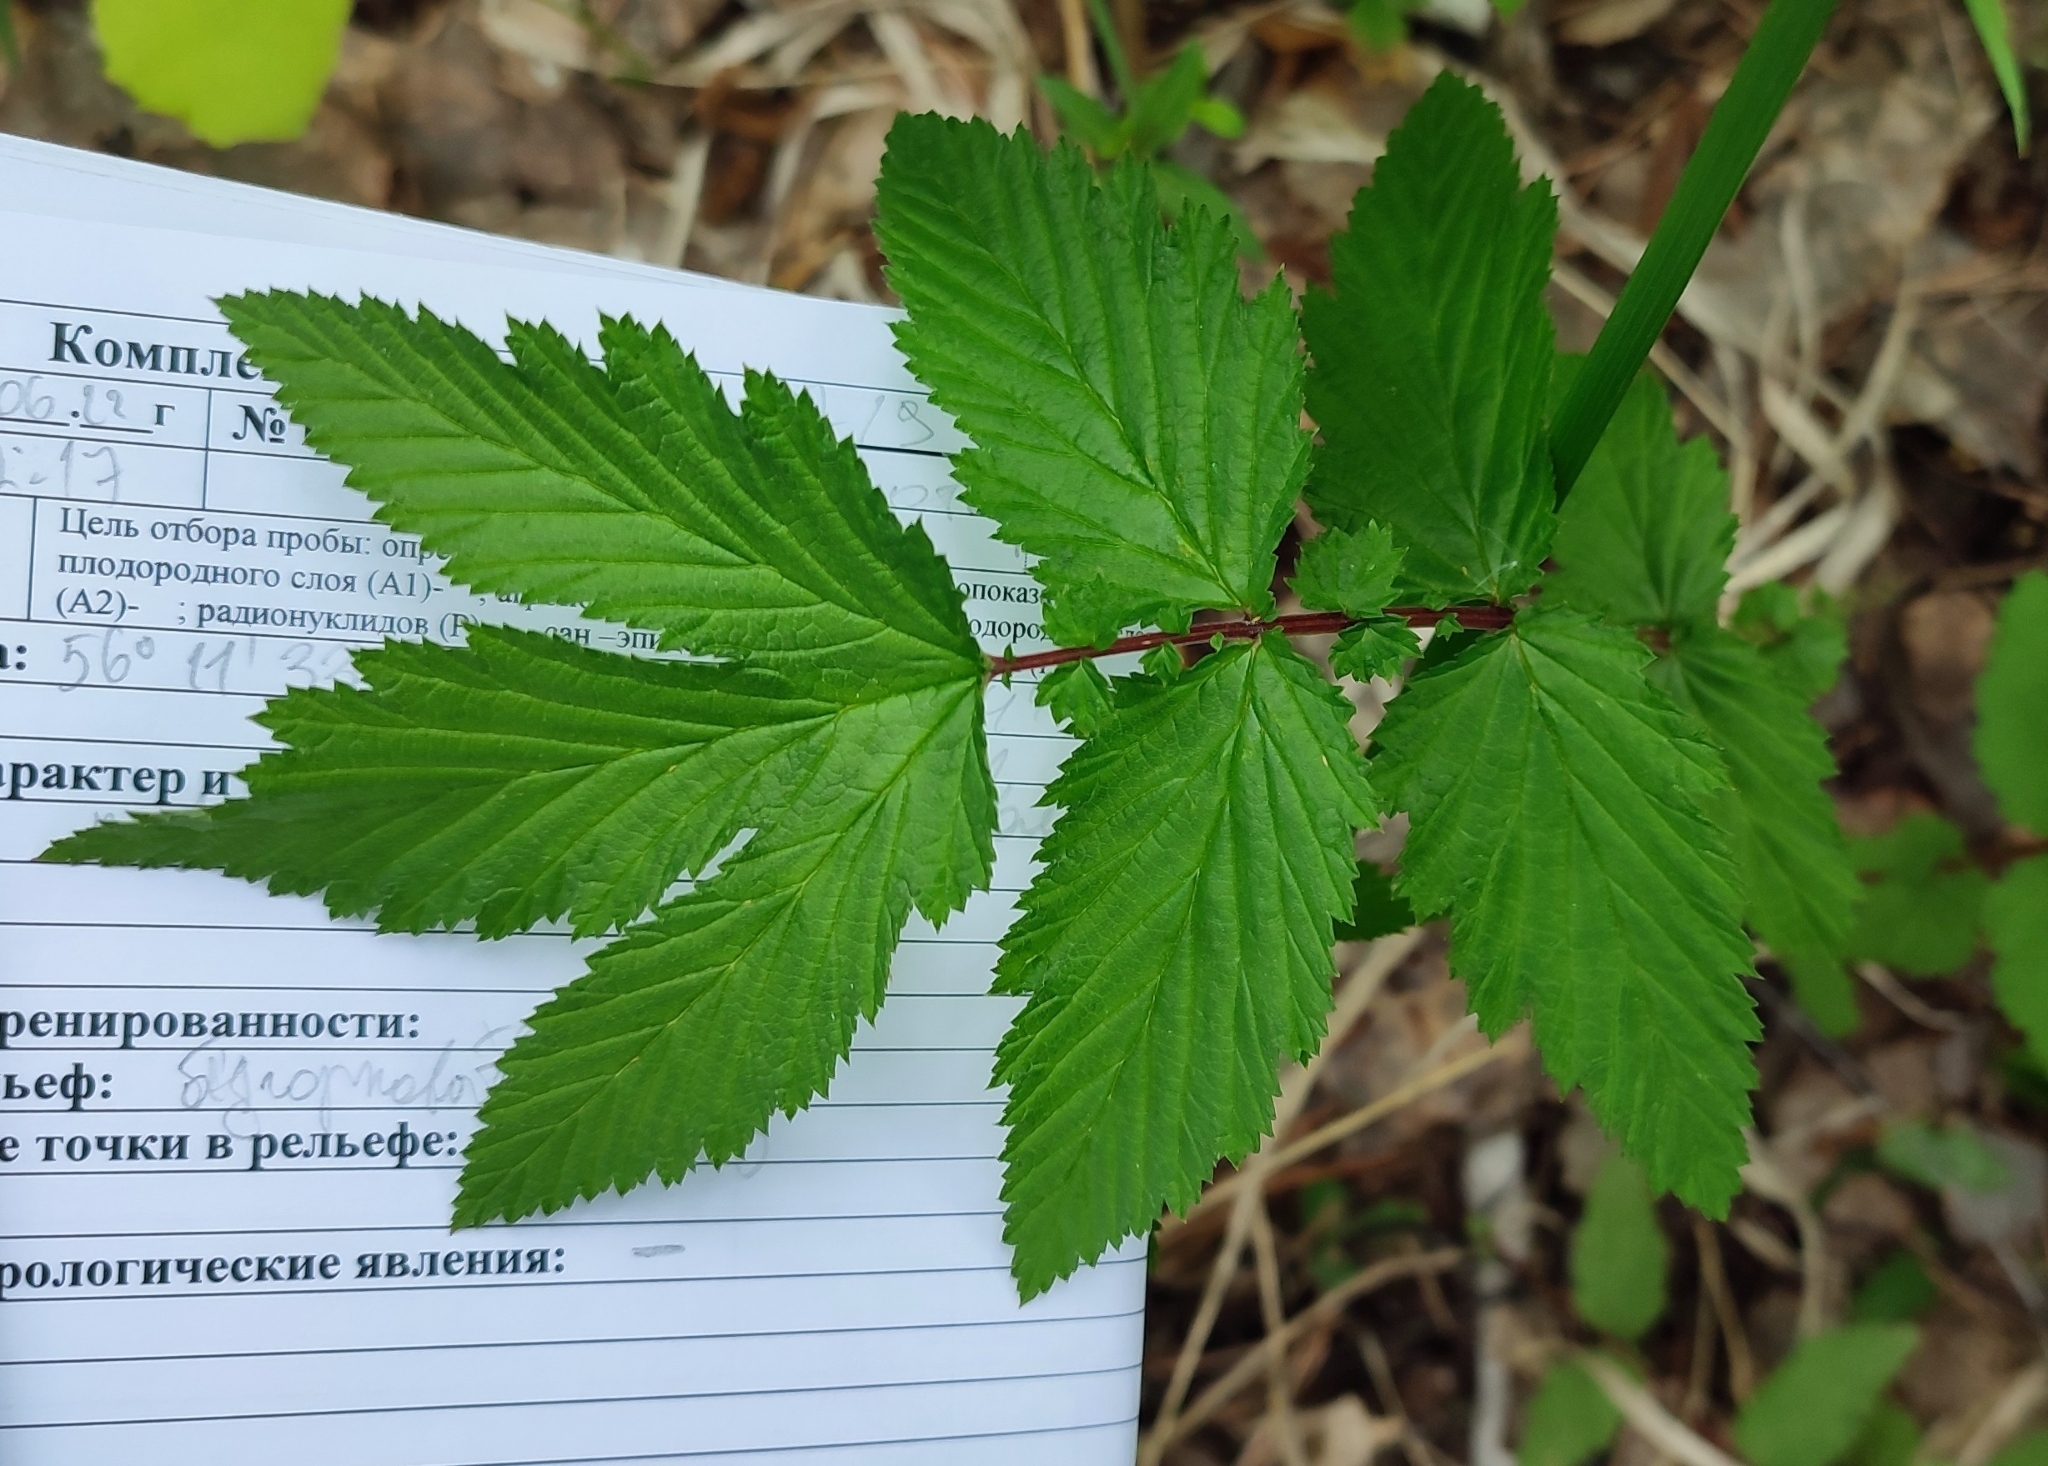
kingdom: Plantae
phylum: Tracheophyta
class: Magnoliopsida
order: Rosales
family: Rosaceae
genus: Filipendula
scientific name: Filipendula ulmaria
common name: Meadowsweet
